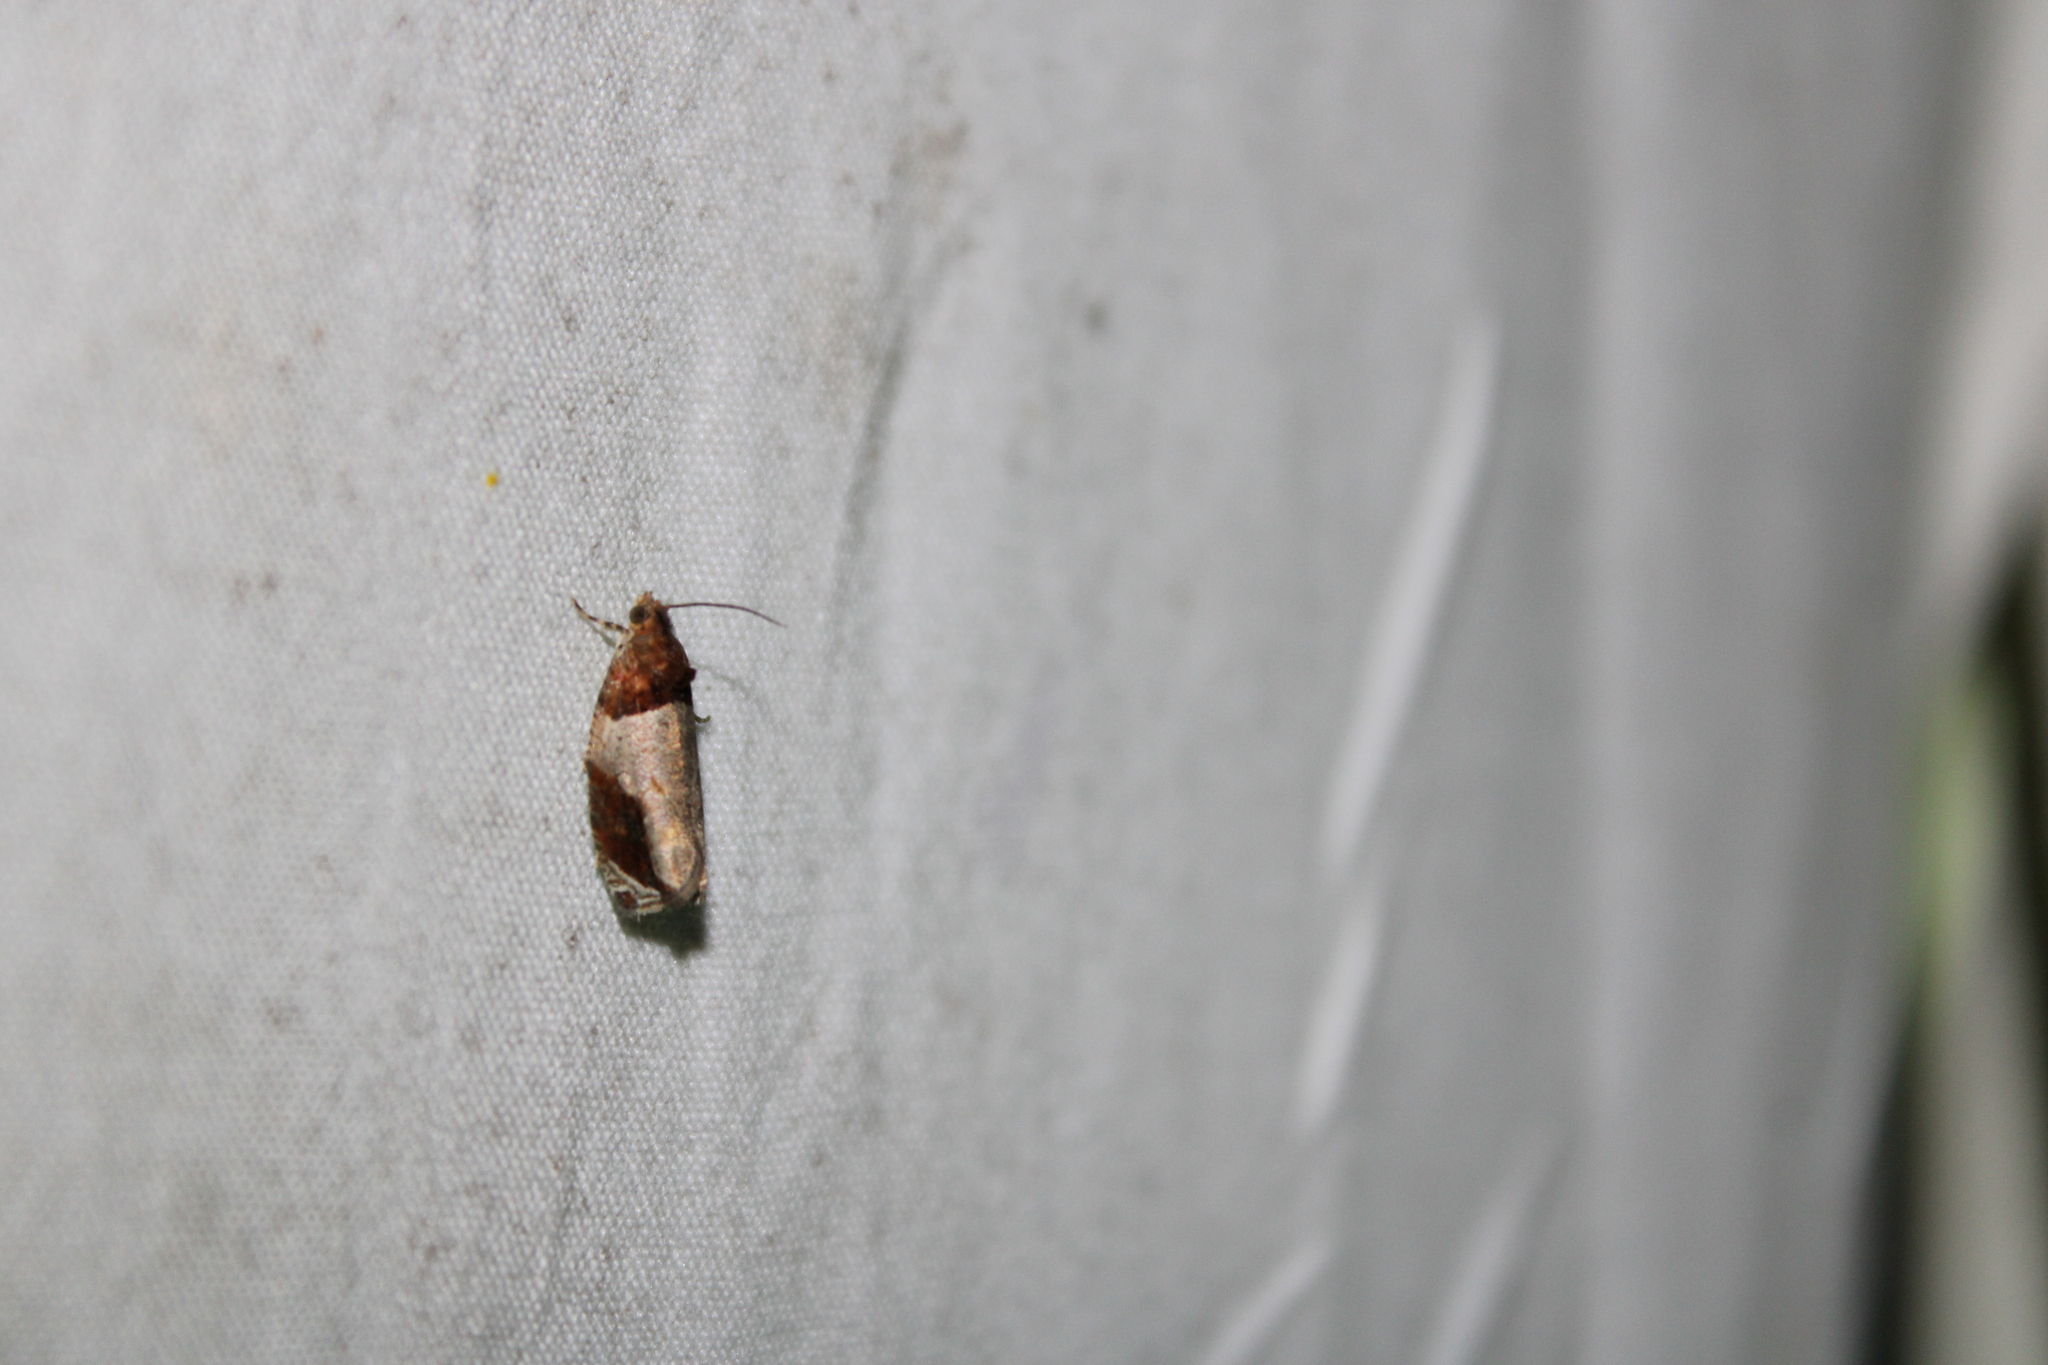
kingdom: Animalia
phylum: Arthropoda
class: Insecta
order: Lepidoptera
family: Tortricidae
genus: Olethreutes
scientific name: Olethreutes ferriferana
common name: Hydrangea leaftier moth
